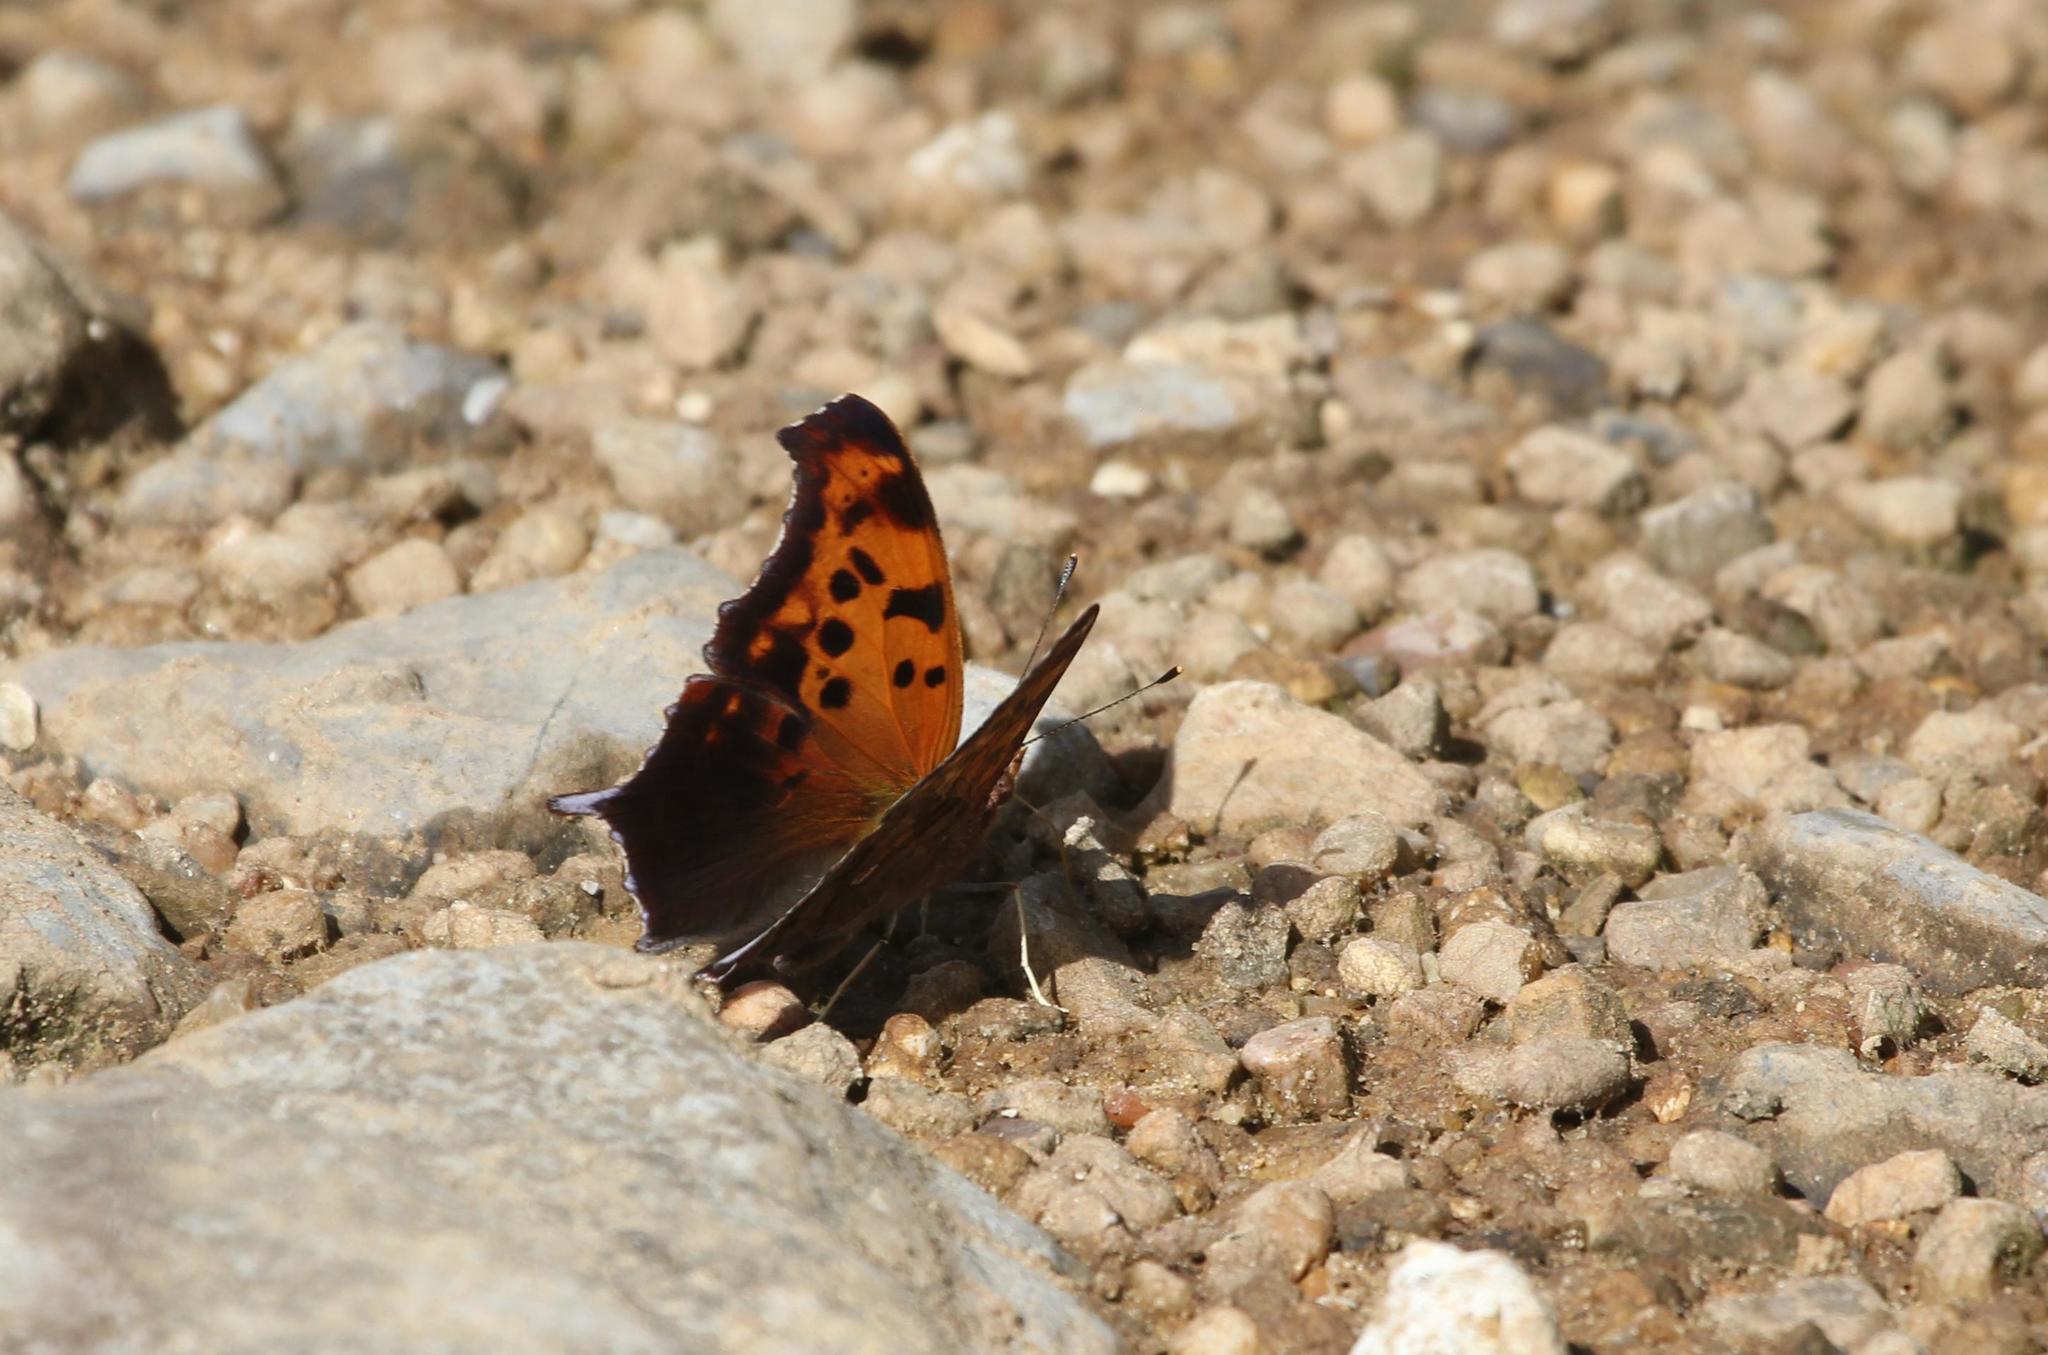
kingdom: Animalia
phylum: Arthropoda
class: Insecta
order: Lepidoptera
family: Nymphalidae
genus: Polygonia
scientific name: Polygonia interrogationis
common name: Question mark
